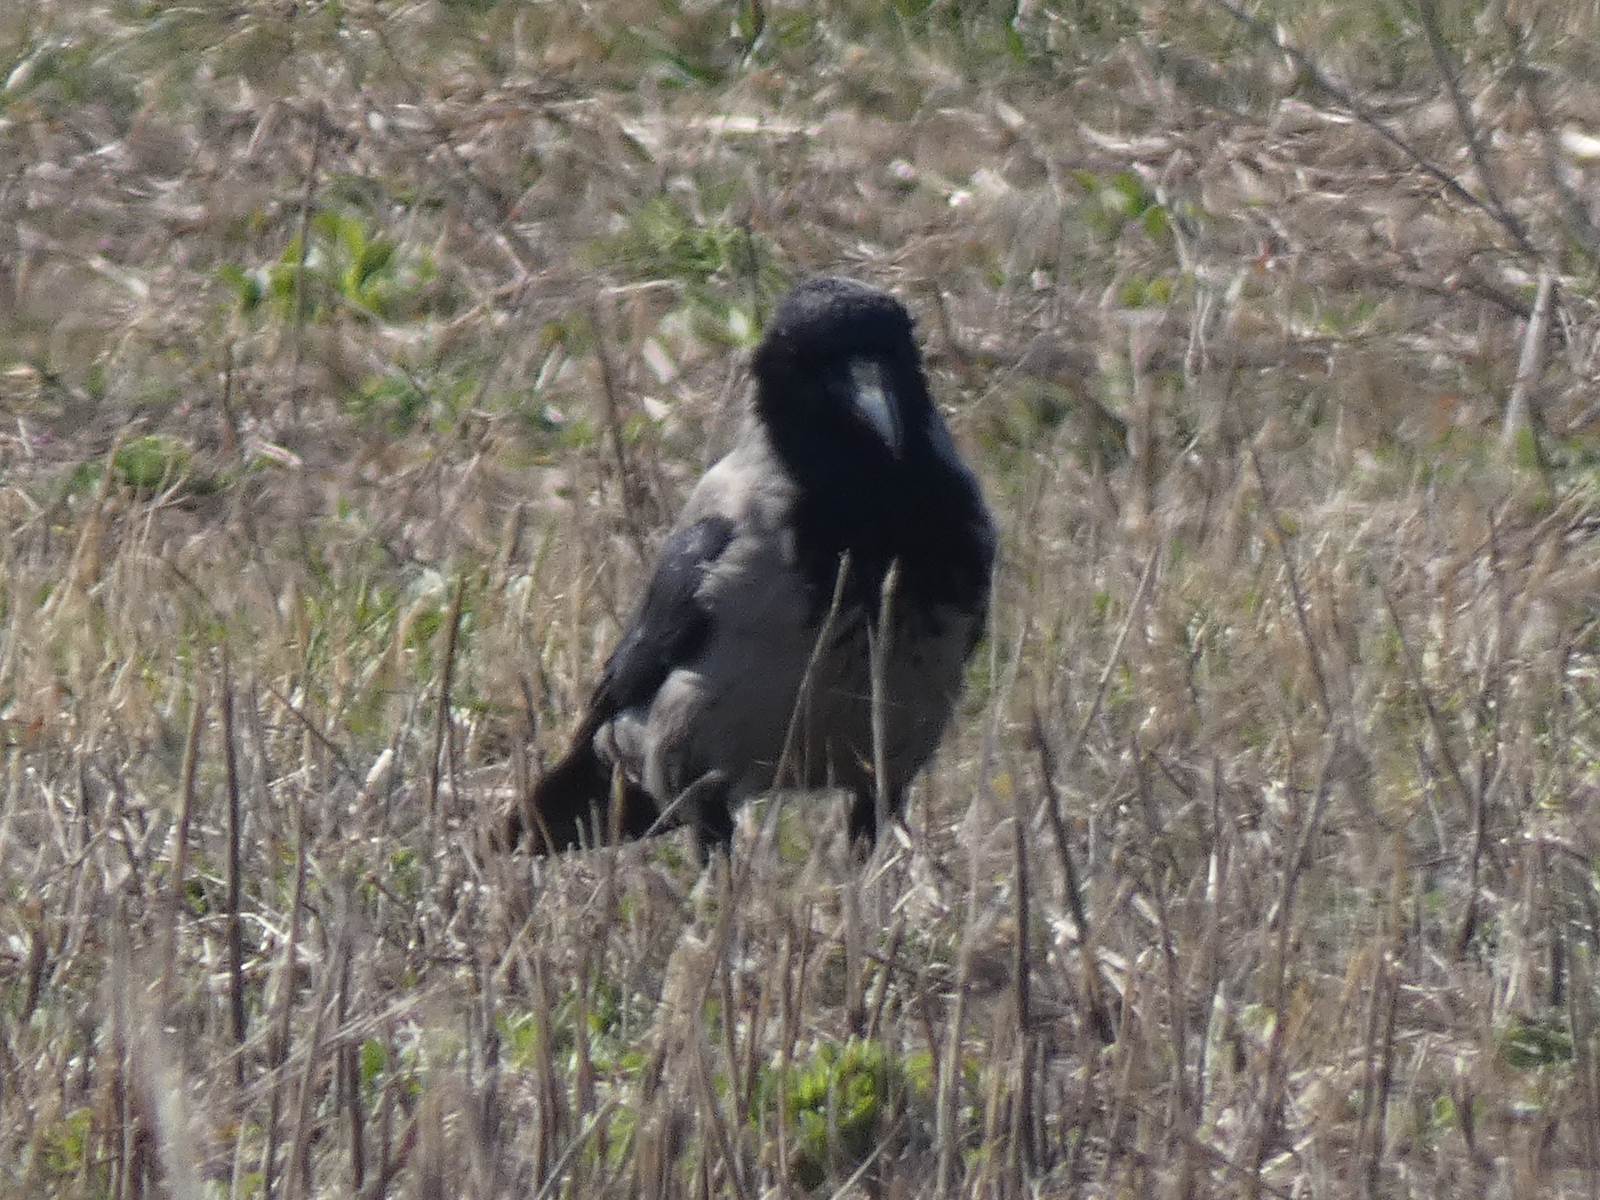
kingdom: Animalia
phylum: Chordata
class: Aves
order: Passeriformes
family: Corvidae
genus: Corvus
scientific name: Corvus cornix
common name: Hooded crow
